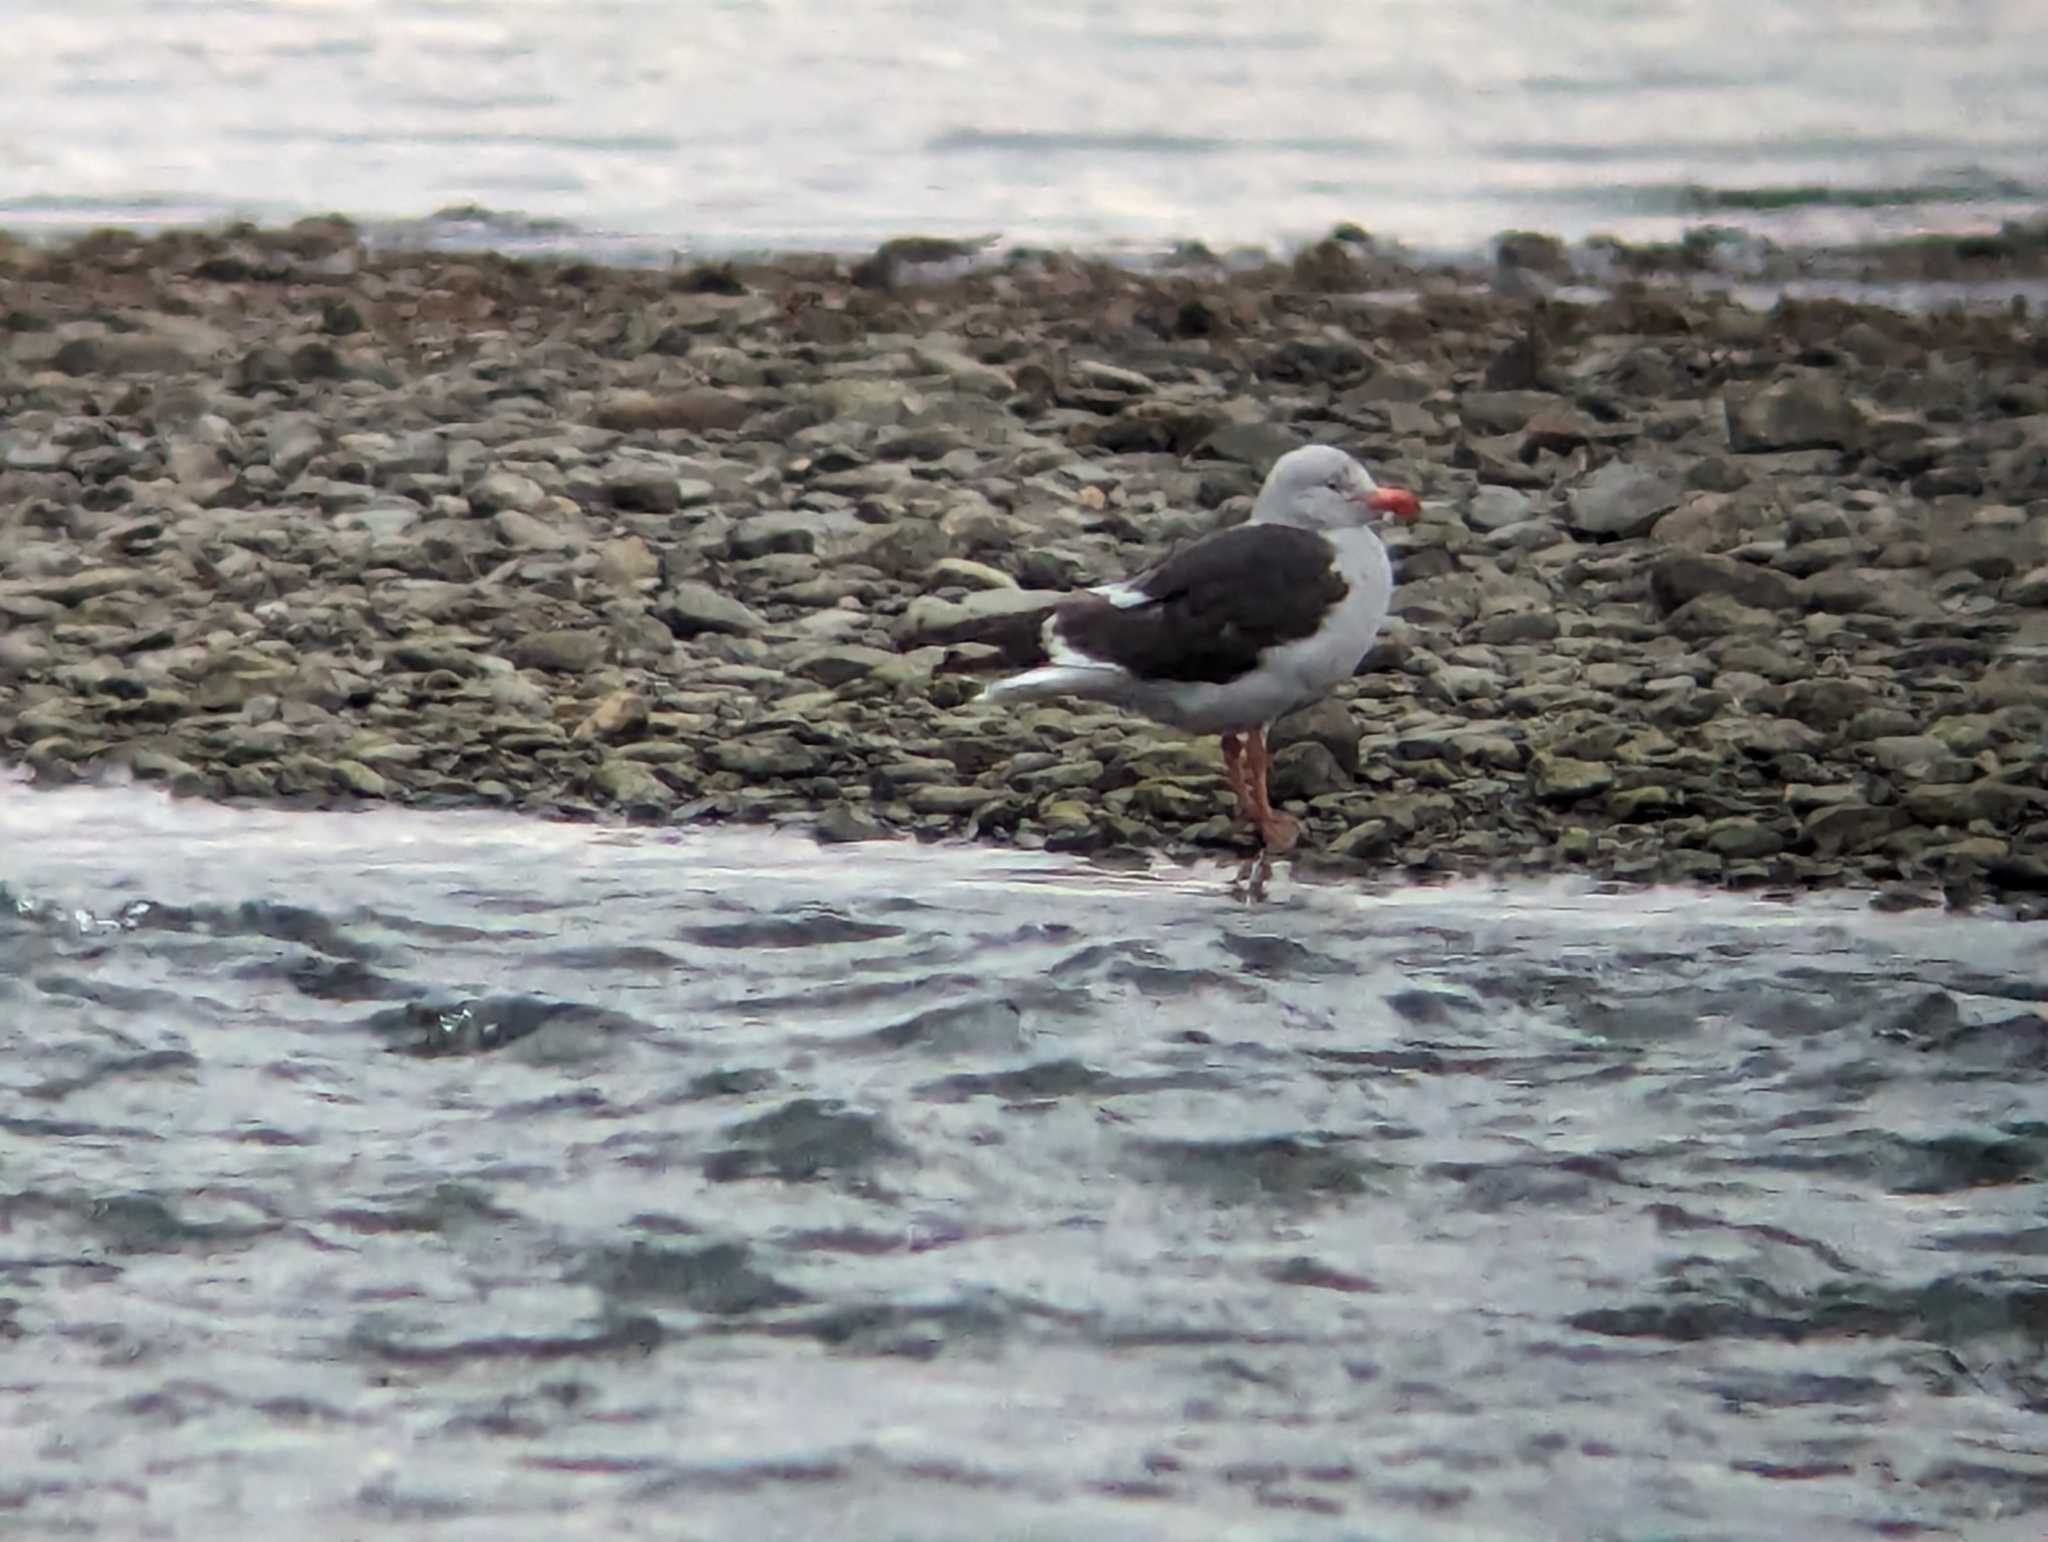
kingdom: Animalia
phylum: Chordata
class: Aves
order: Charadriiformes
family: Laridae
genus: Leucophaeus
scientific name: Leucophaeus scoresbii
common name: Dolphin gull
